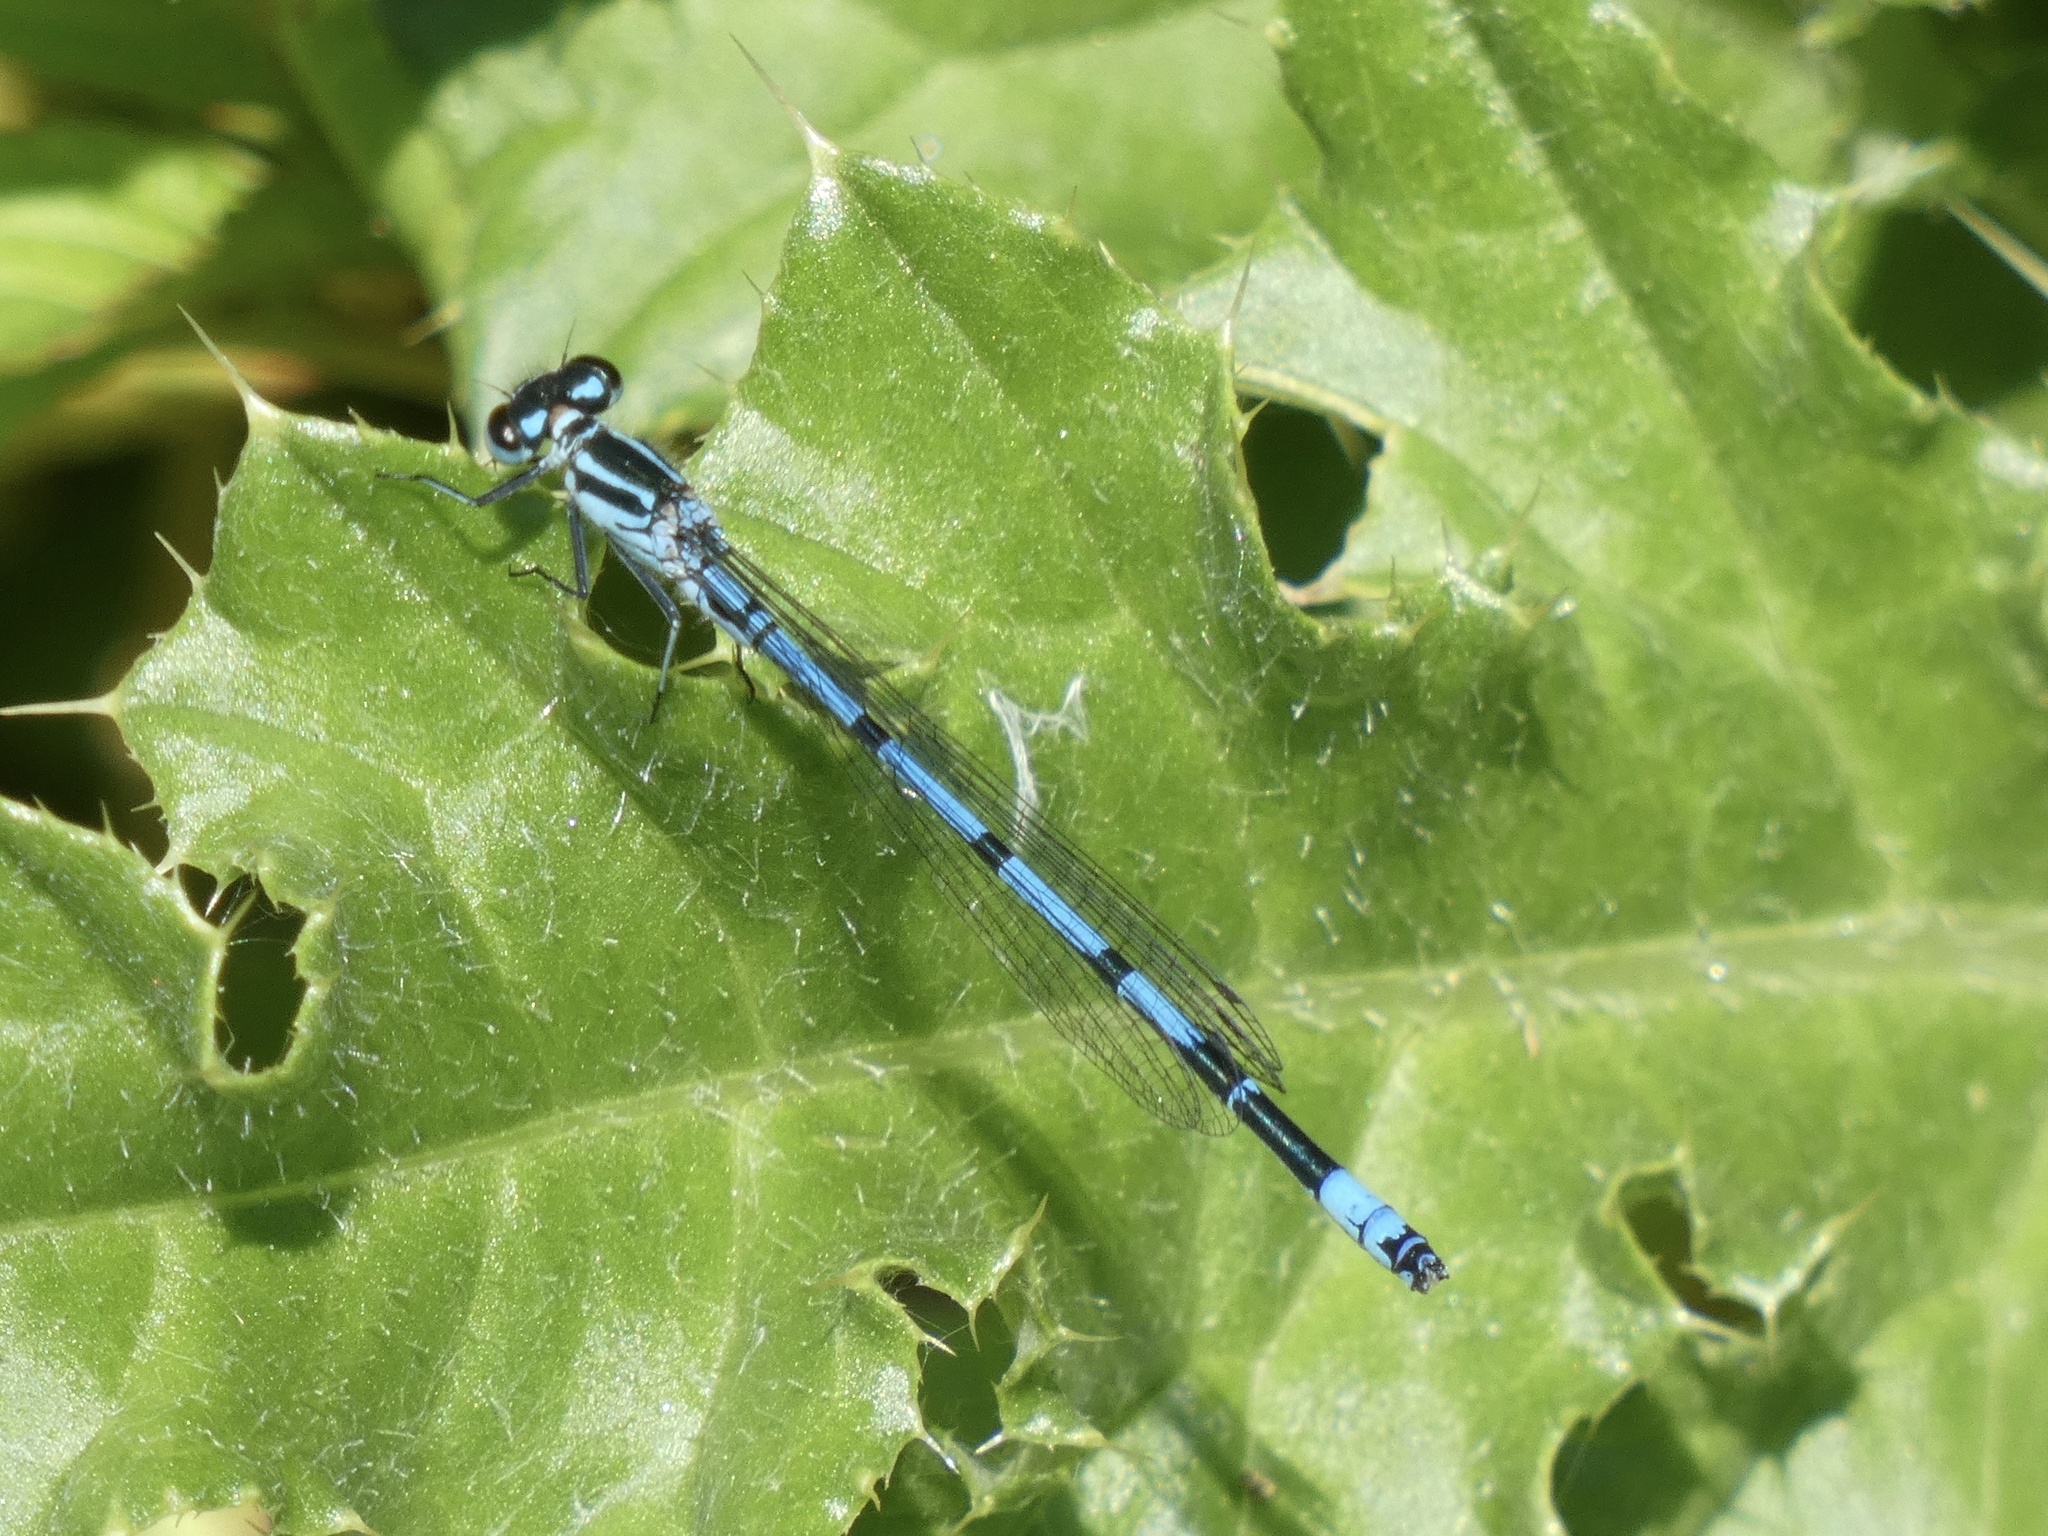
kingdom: Animalia
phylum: Arthropoda
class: Insecta
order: Odonata
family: Coenagrionidae
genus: Coenagrion
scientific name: Coenagrion puella
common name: Azure damselfly
